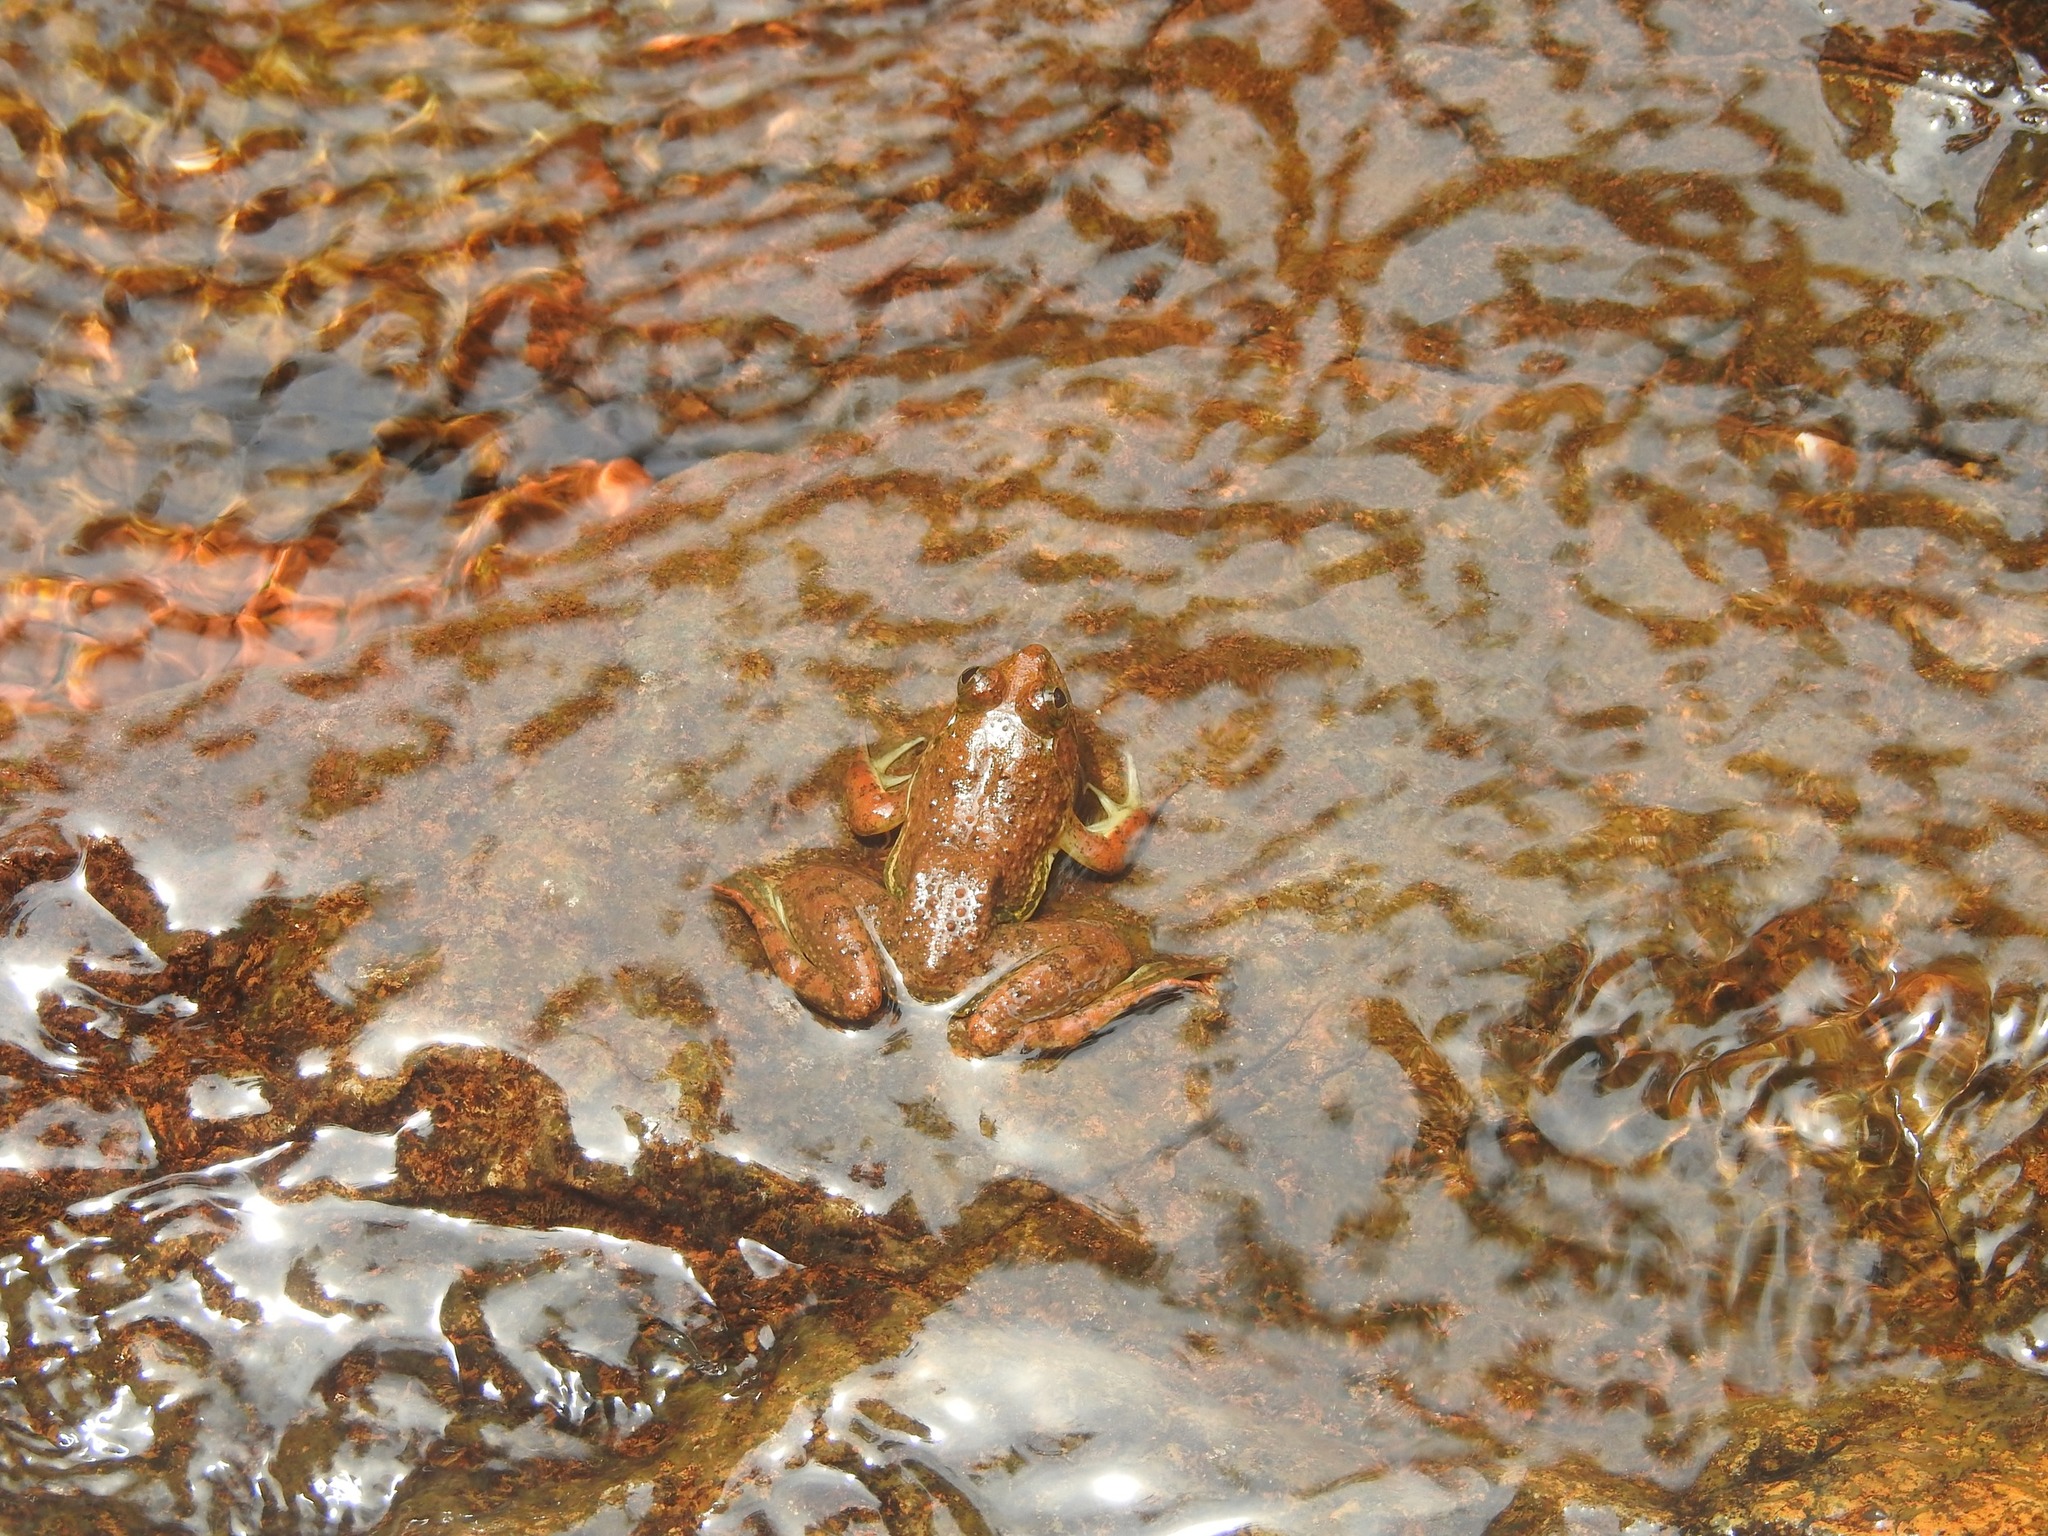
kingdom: Animalia
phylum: Chordata
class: Amphibia
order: Anura
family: Dicroglossidae
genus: Euphlyctis
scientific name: Euphlyctis cyanophlyctis
